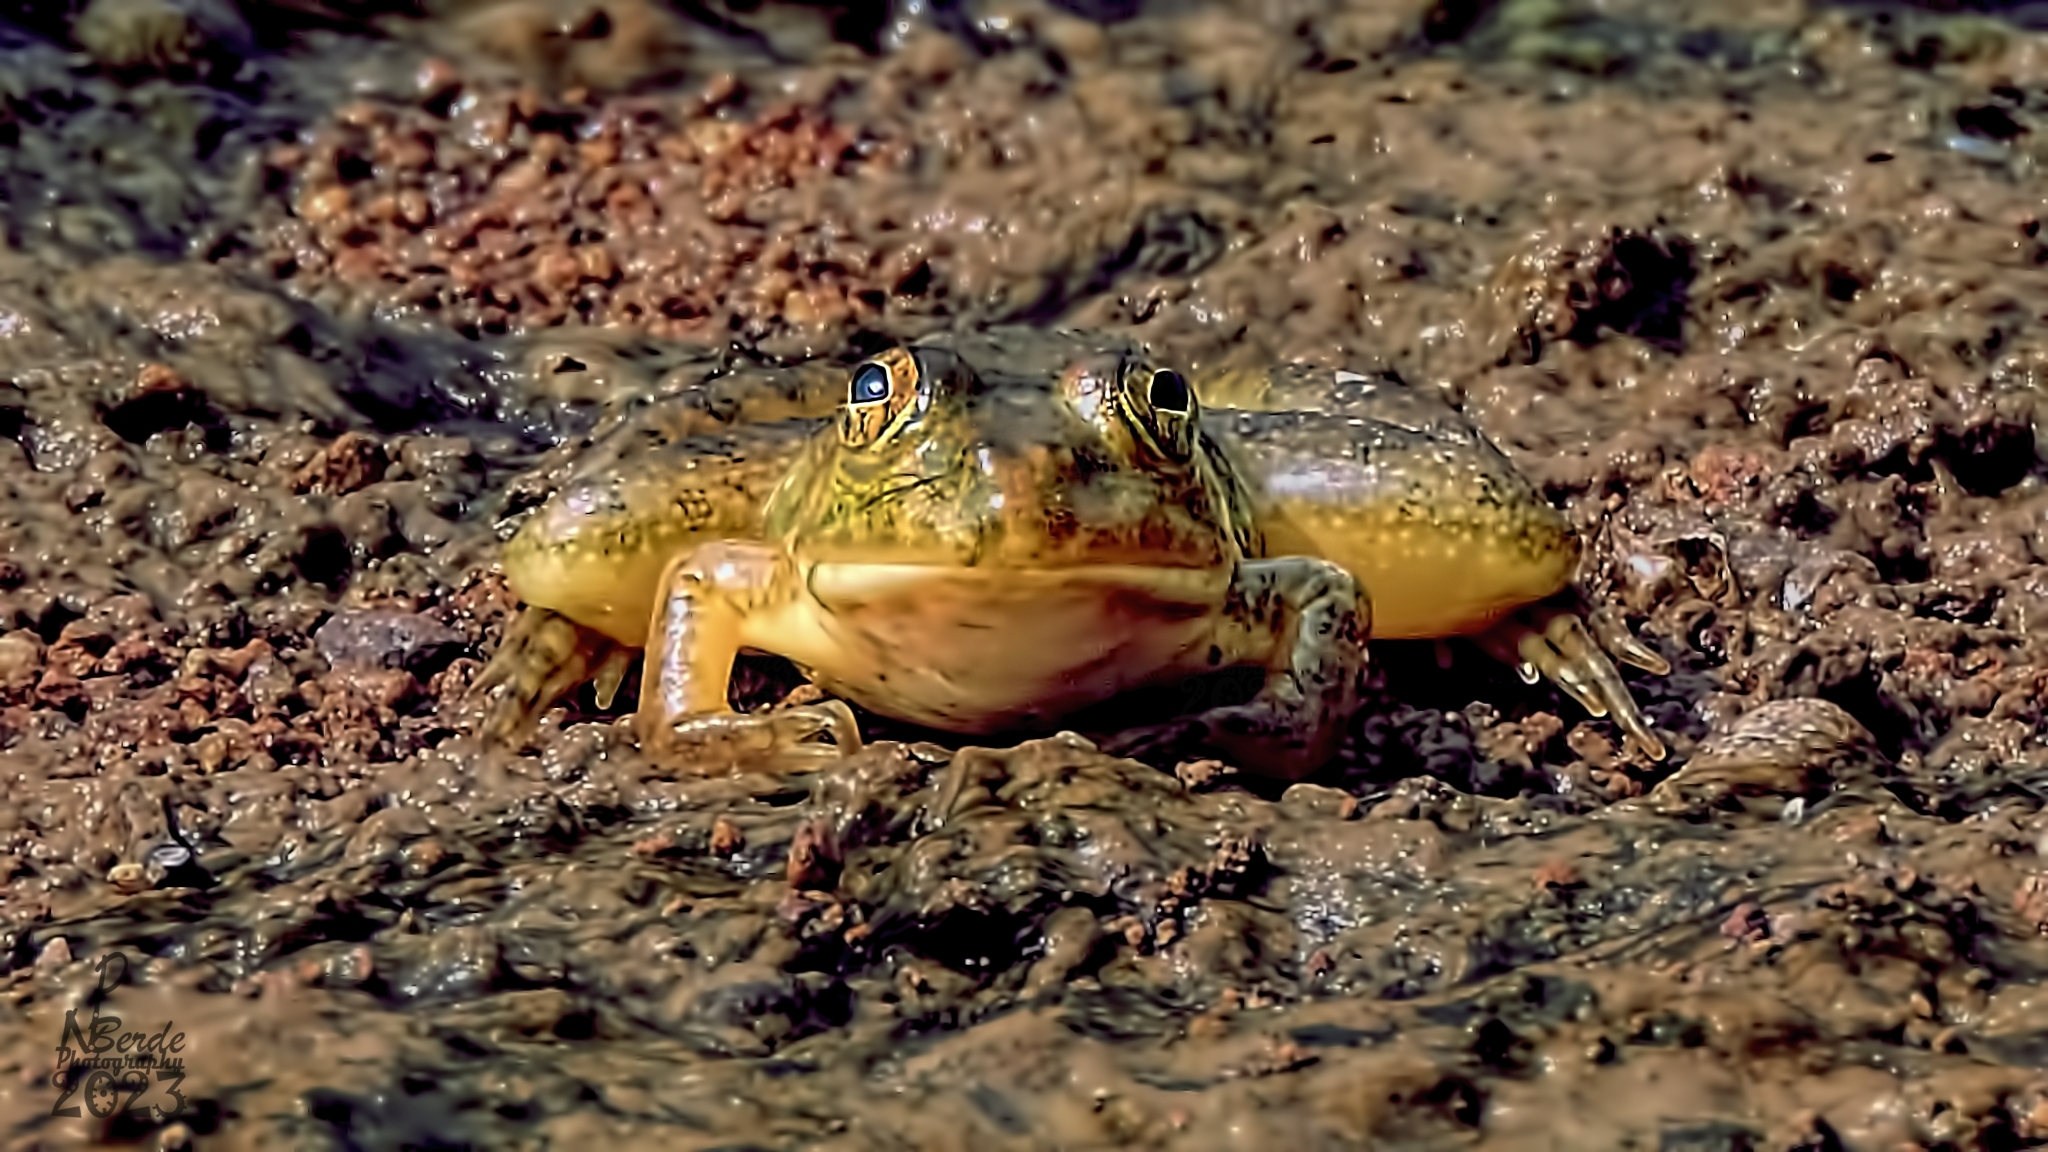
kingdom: Animalia
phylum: Chordata
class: Amphibia
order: Anura
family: Dicroglossidae
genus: Euphlyctis
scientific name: Euphlyctis jaladhara
